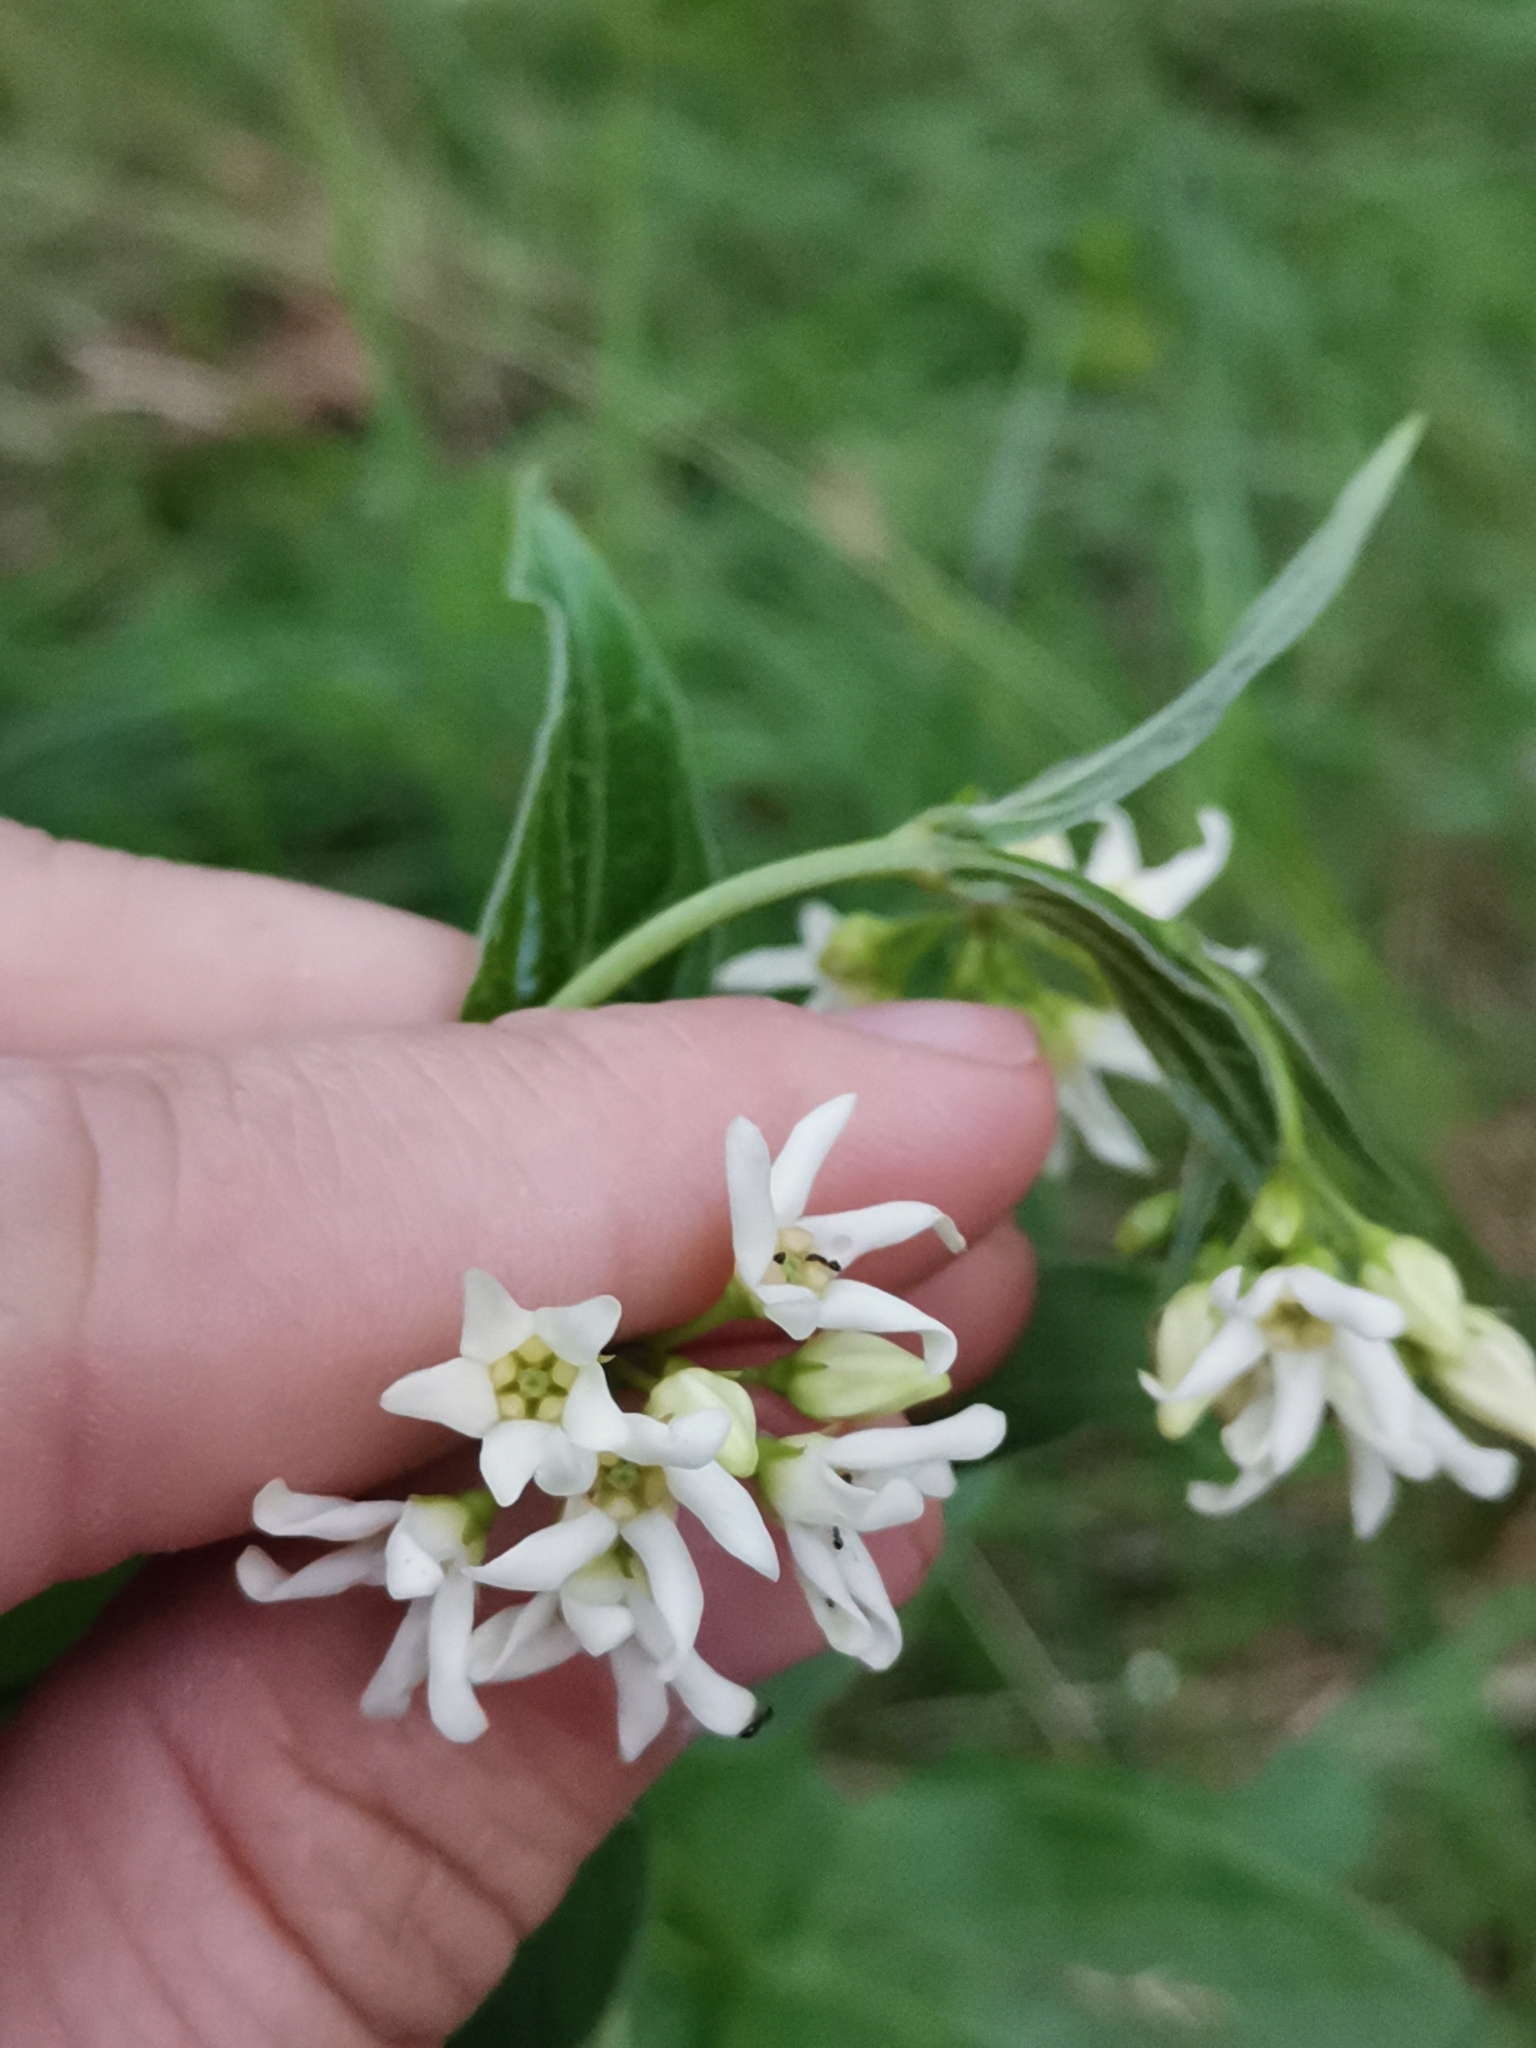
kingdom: Plantae
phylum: Tracheophyta
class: Magnoliopsida
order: Gentianales
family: Apocynaceae
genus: Vincetoxicum
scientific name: Vincetoxicum hirundinaria
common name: White swallowwort
